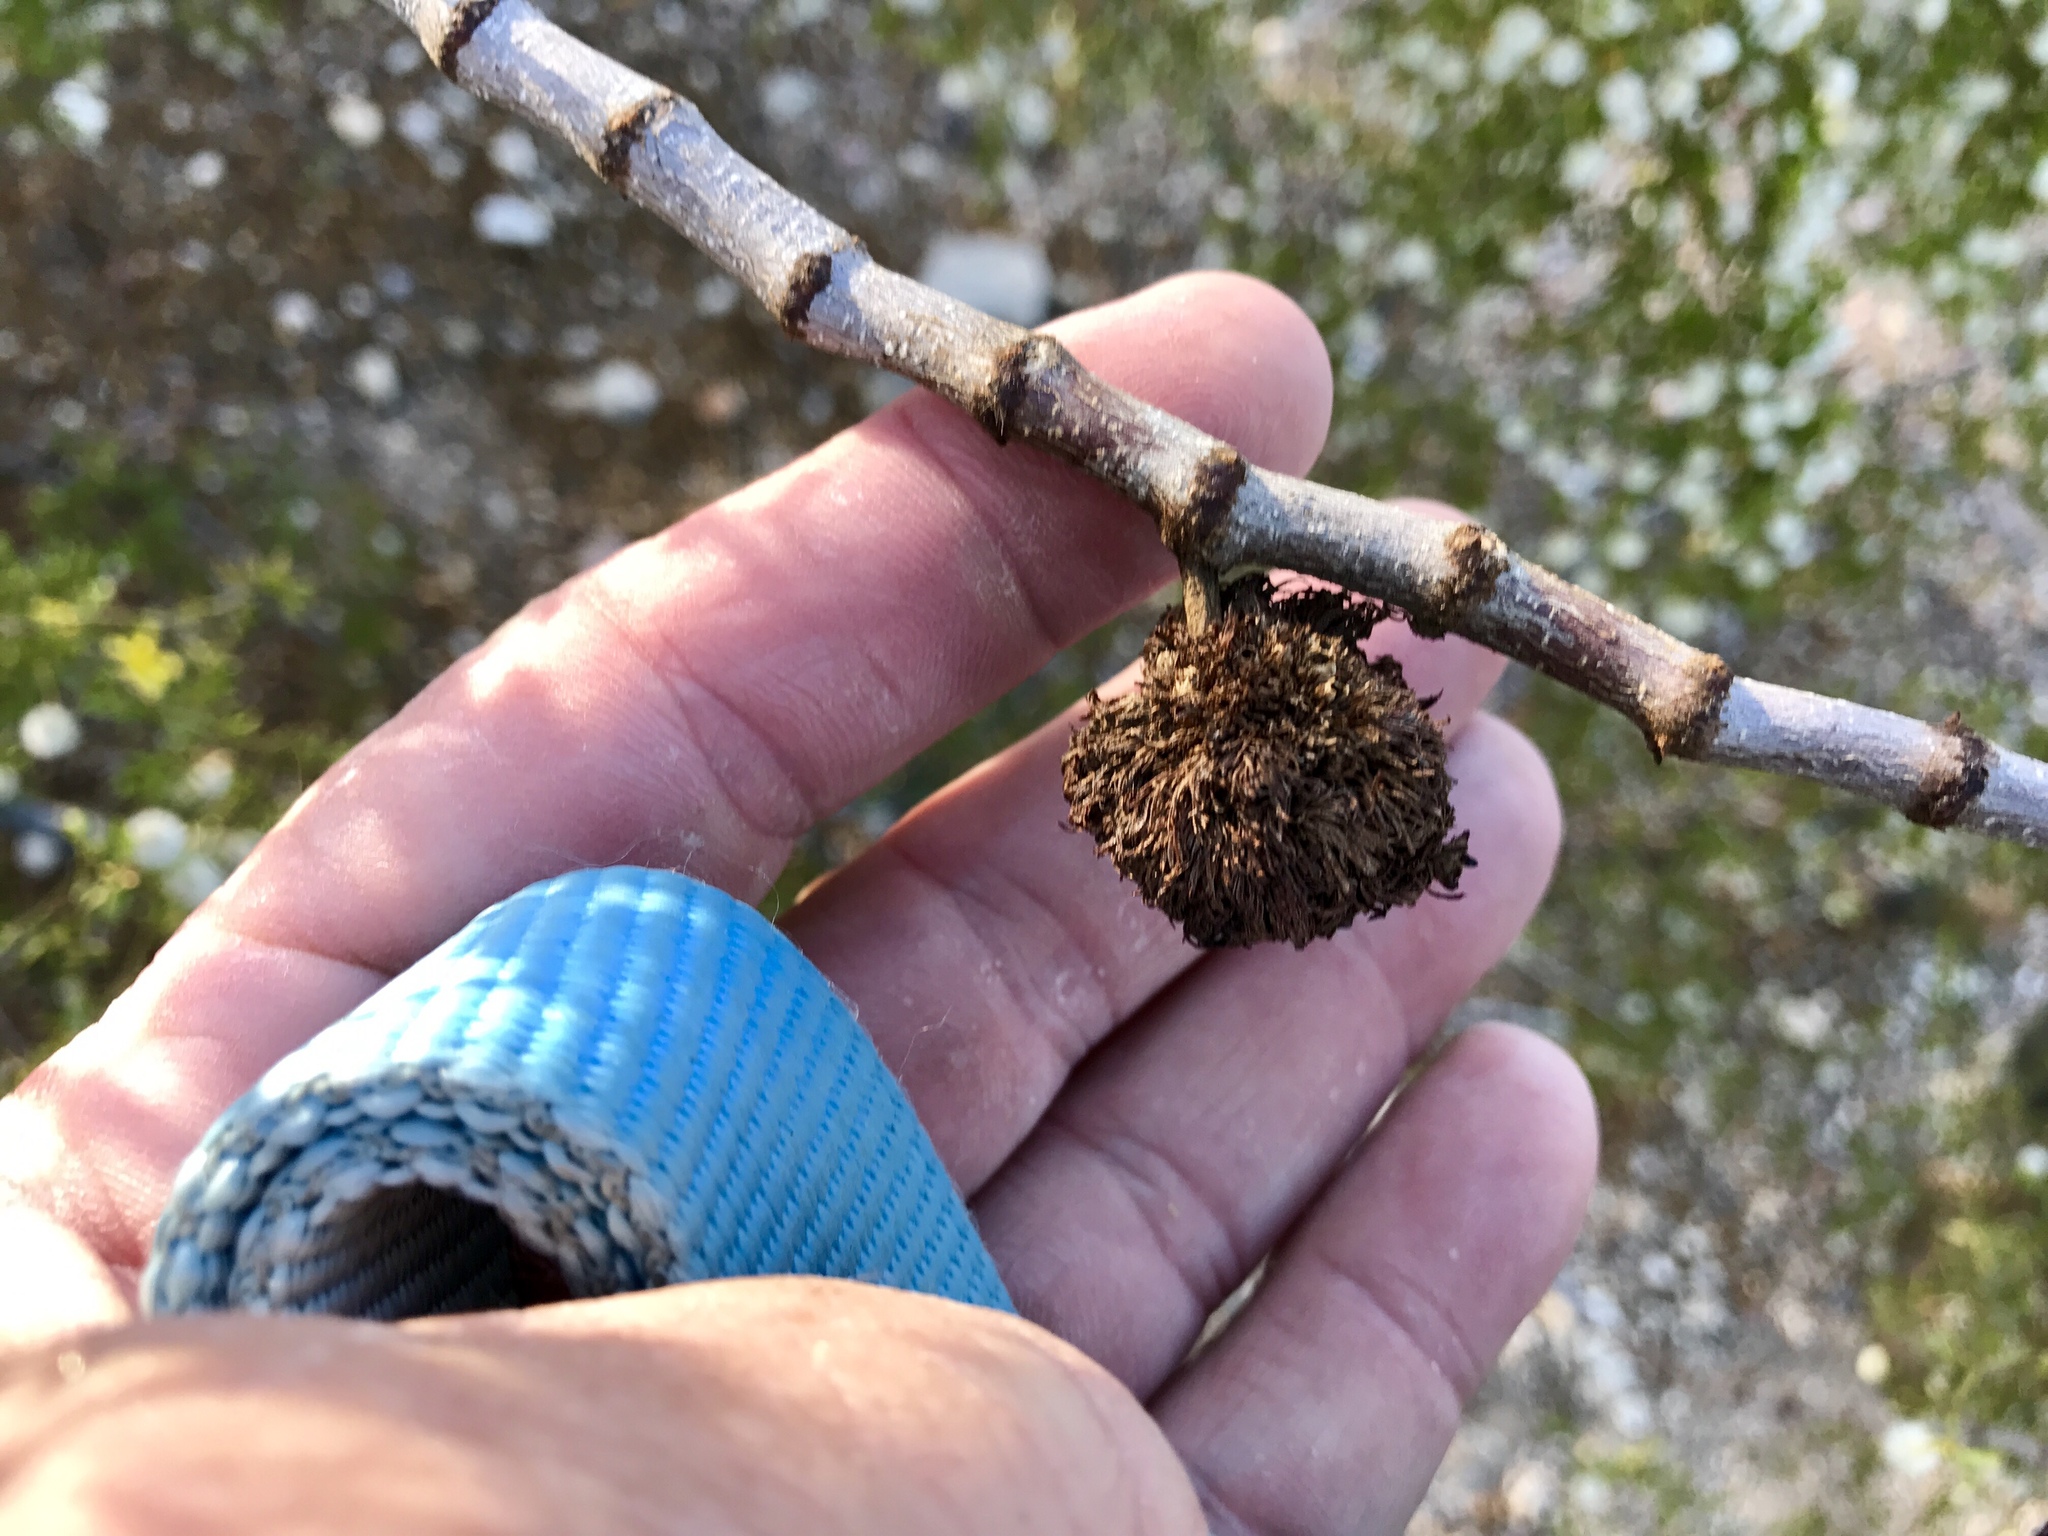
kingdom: Animalia
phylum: Arthropoda
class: Insecta
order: Diptera
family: Cecidomyiidae
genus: Asphondylia
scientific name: Asphondylia auripila
